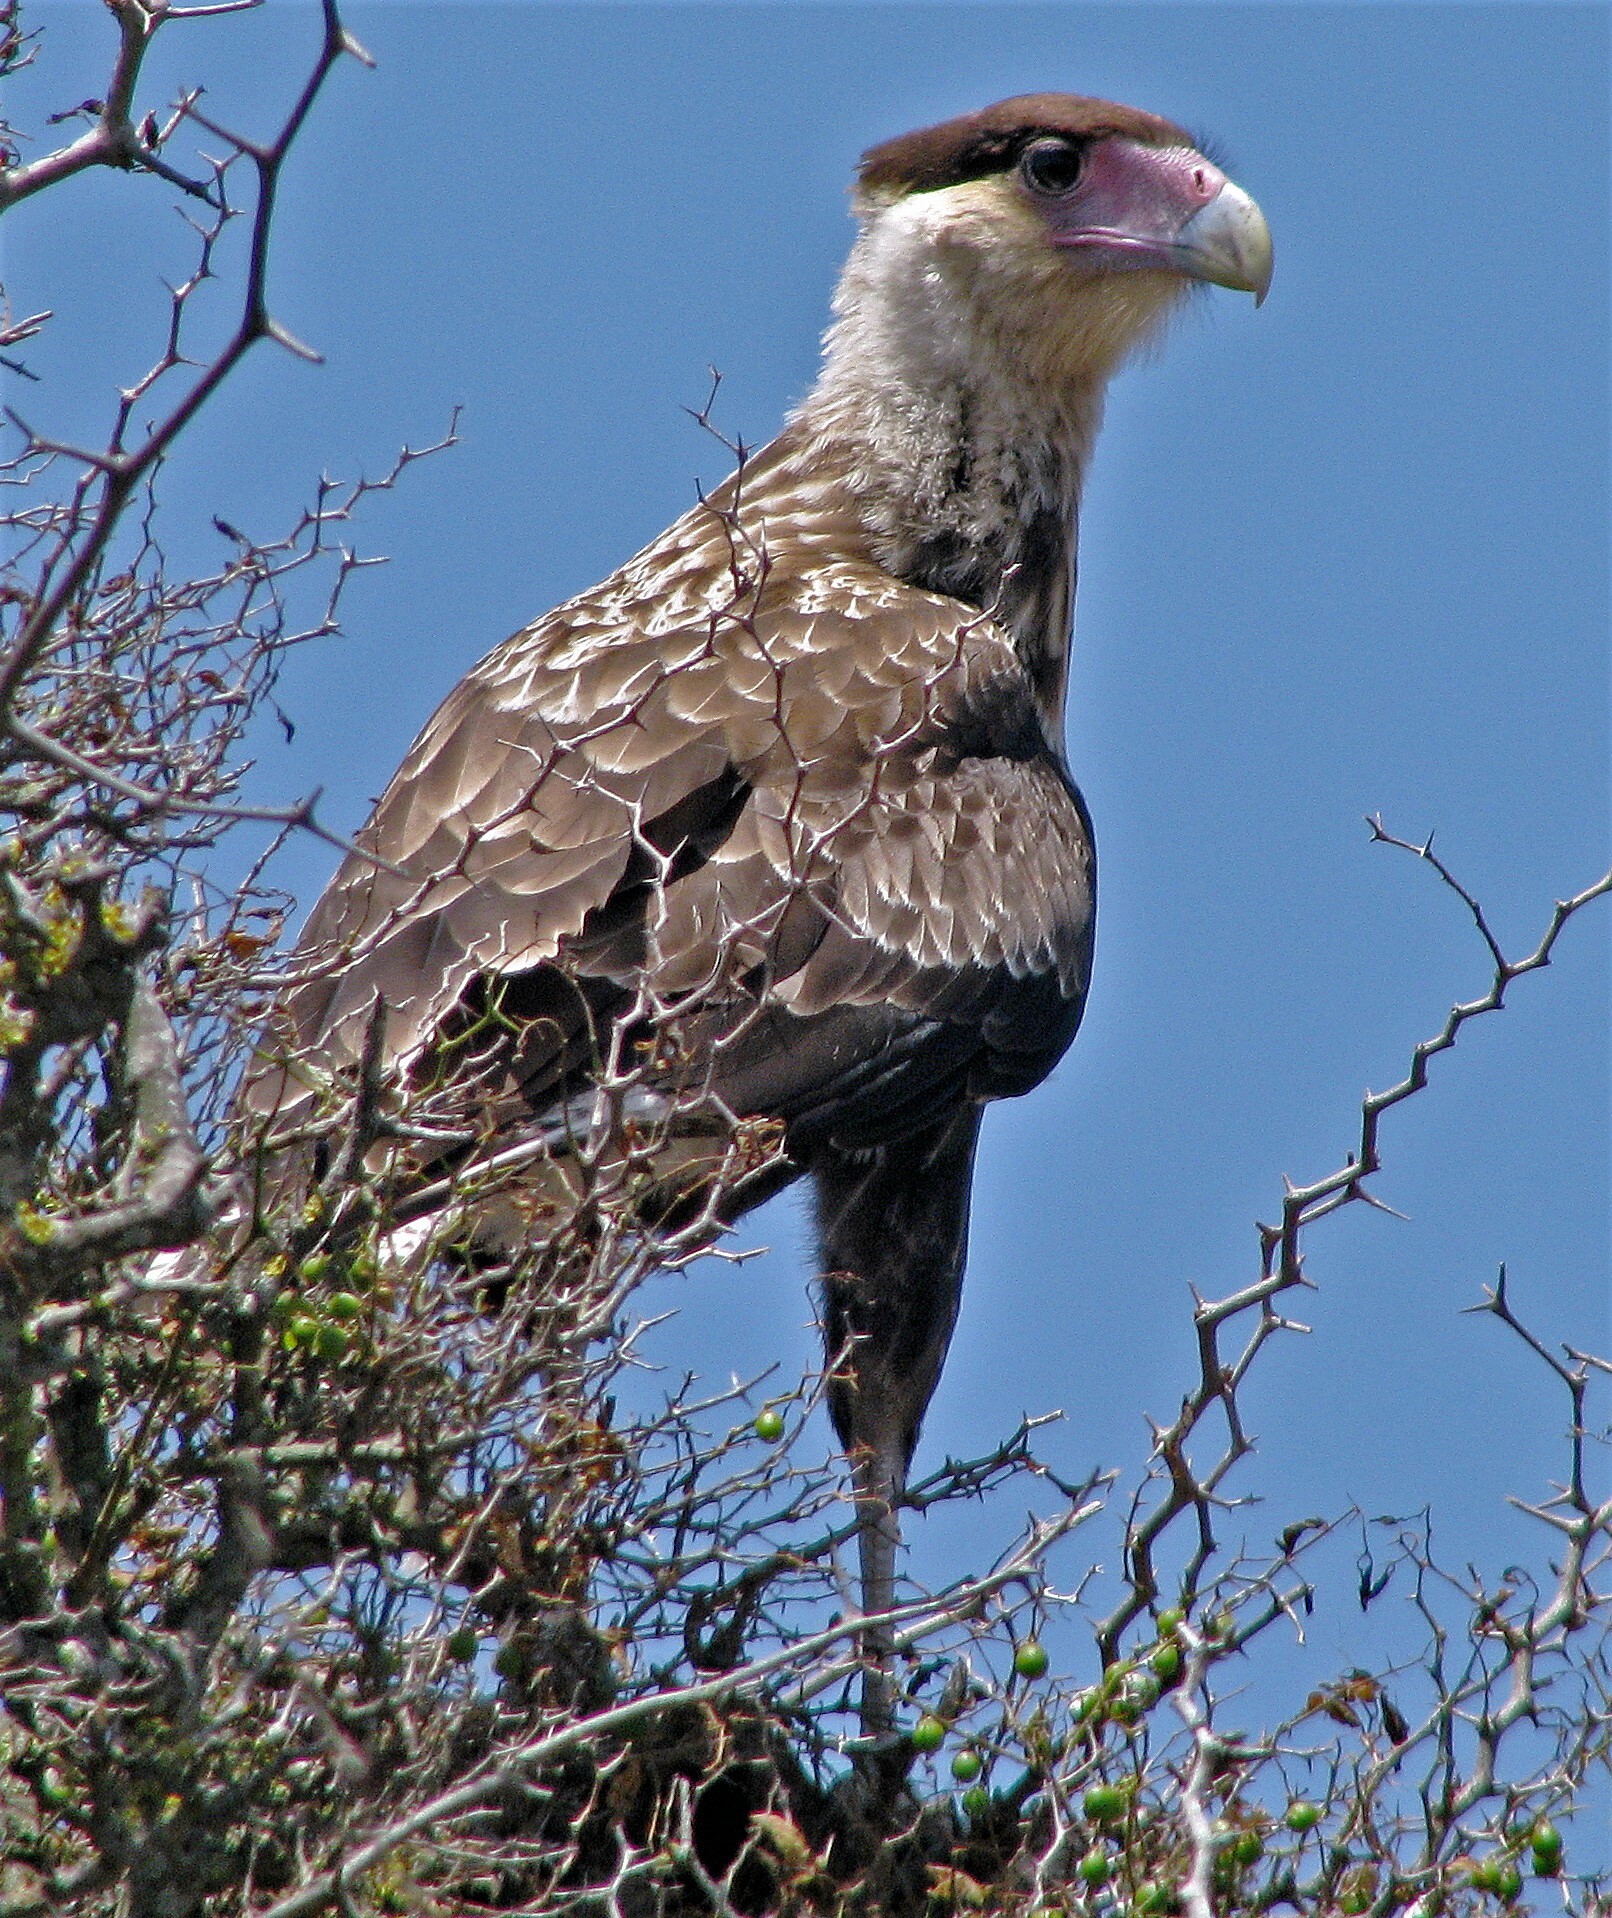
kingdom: Animalia
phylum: Chordata
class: Aves
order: Falconiformes
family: Falconidae
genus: Caracara
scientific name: Caracara plancus
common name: Southern caracara
